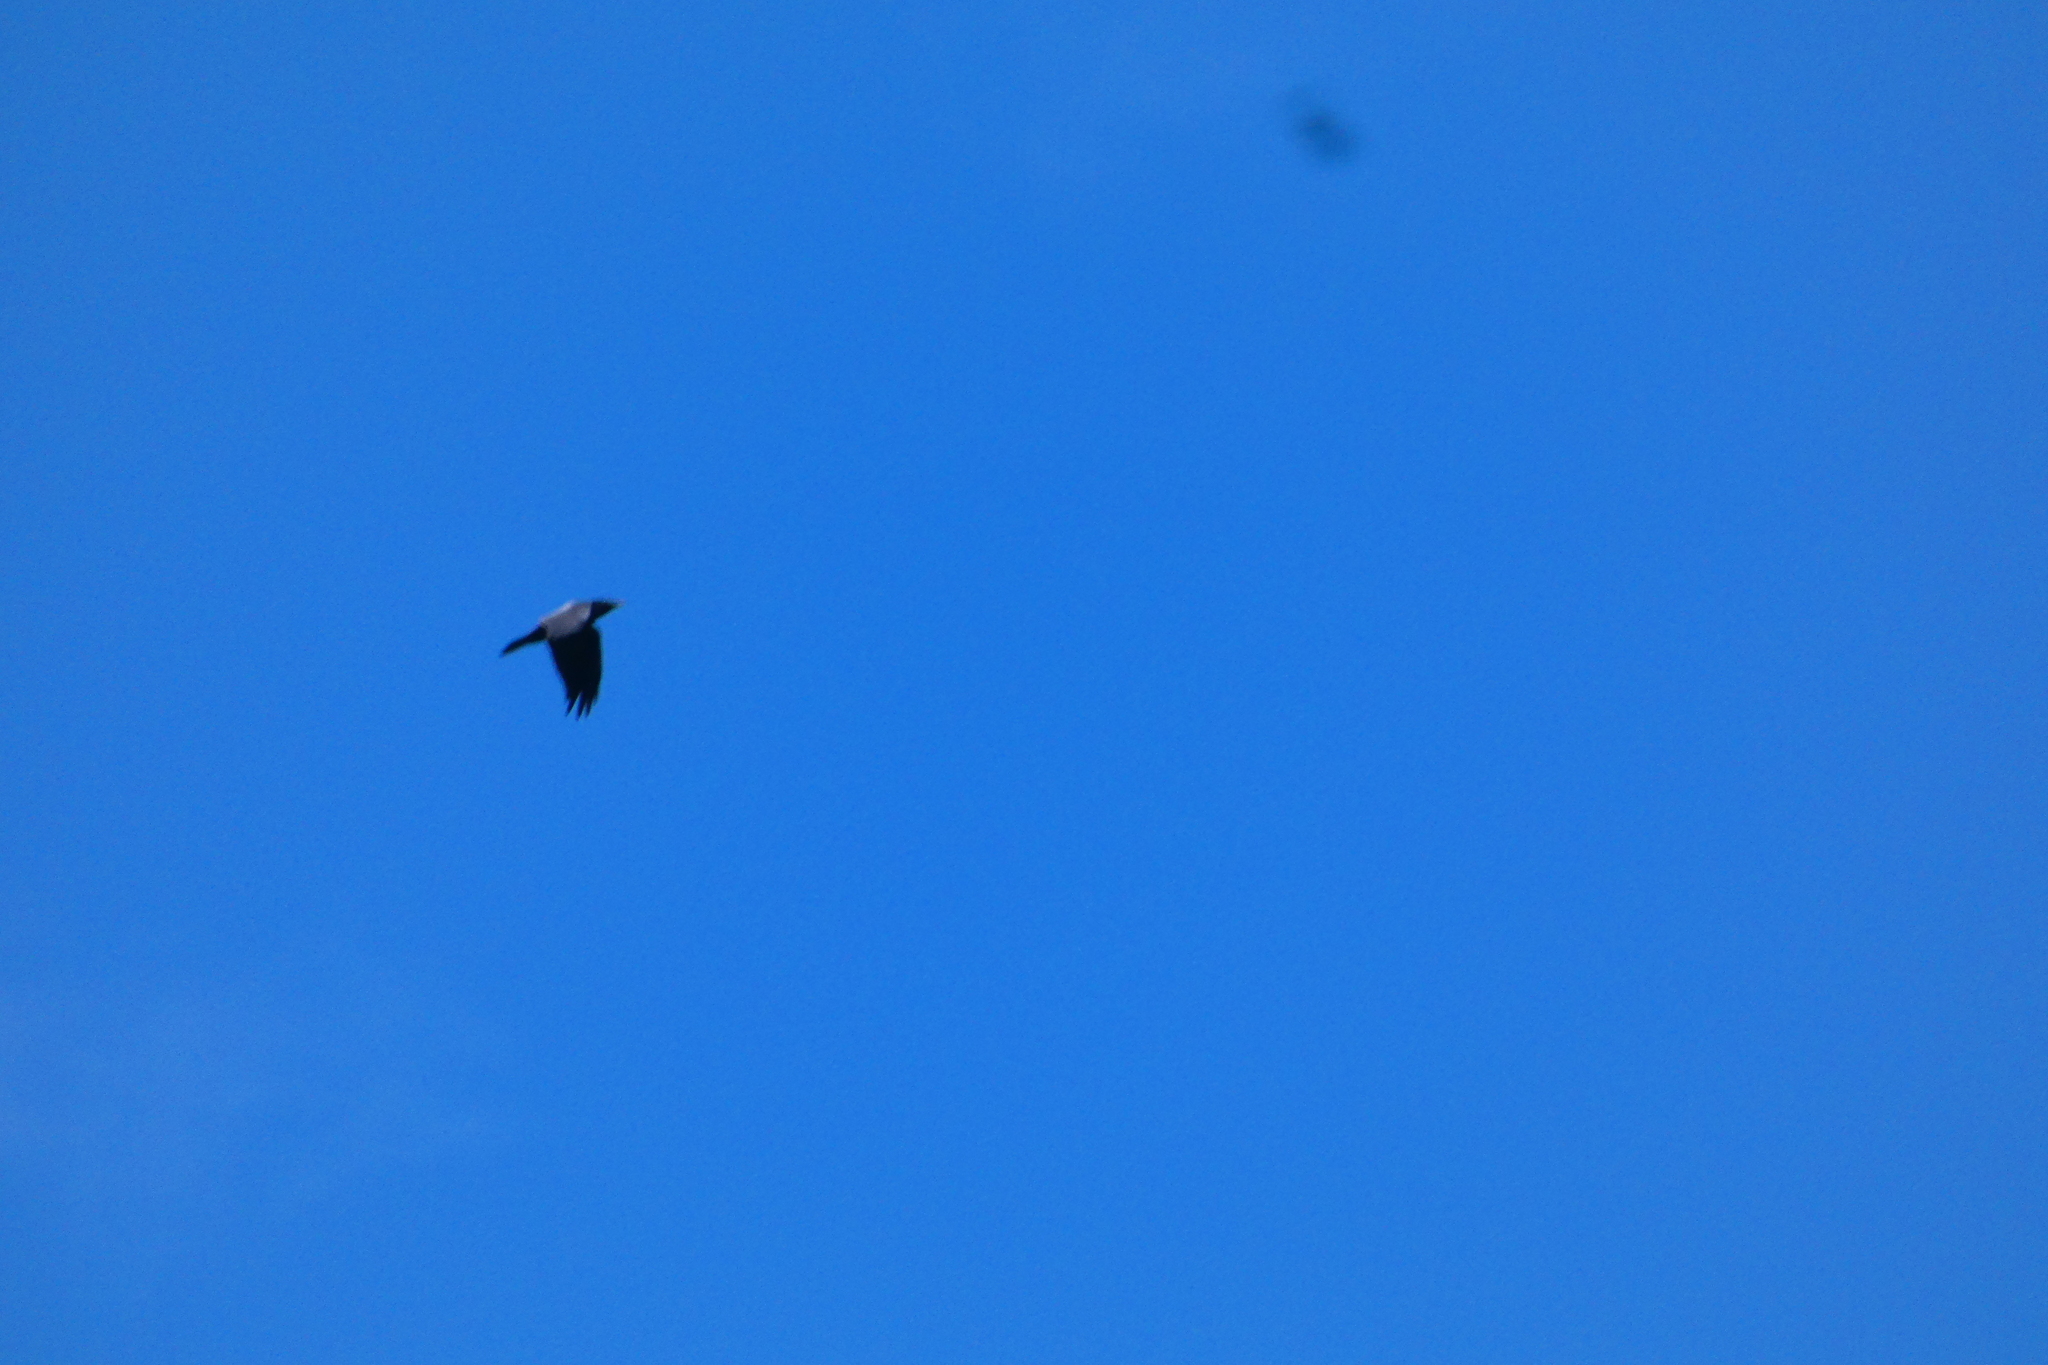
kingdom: Animalia
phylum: Chordata
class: Aves
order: Passeriformes
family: Corvidae
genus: Corvus
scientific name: Corvus corax
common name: Common raven
